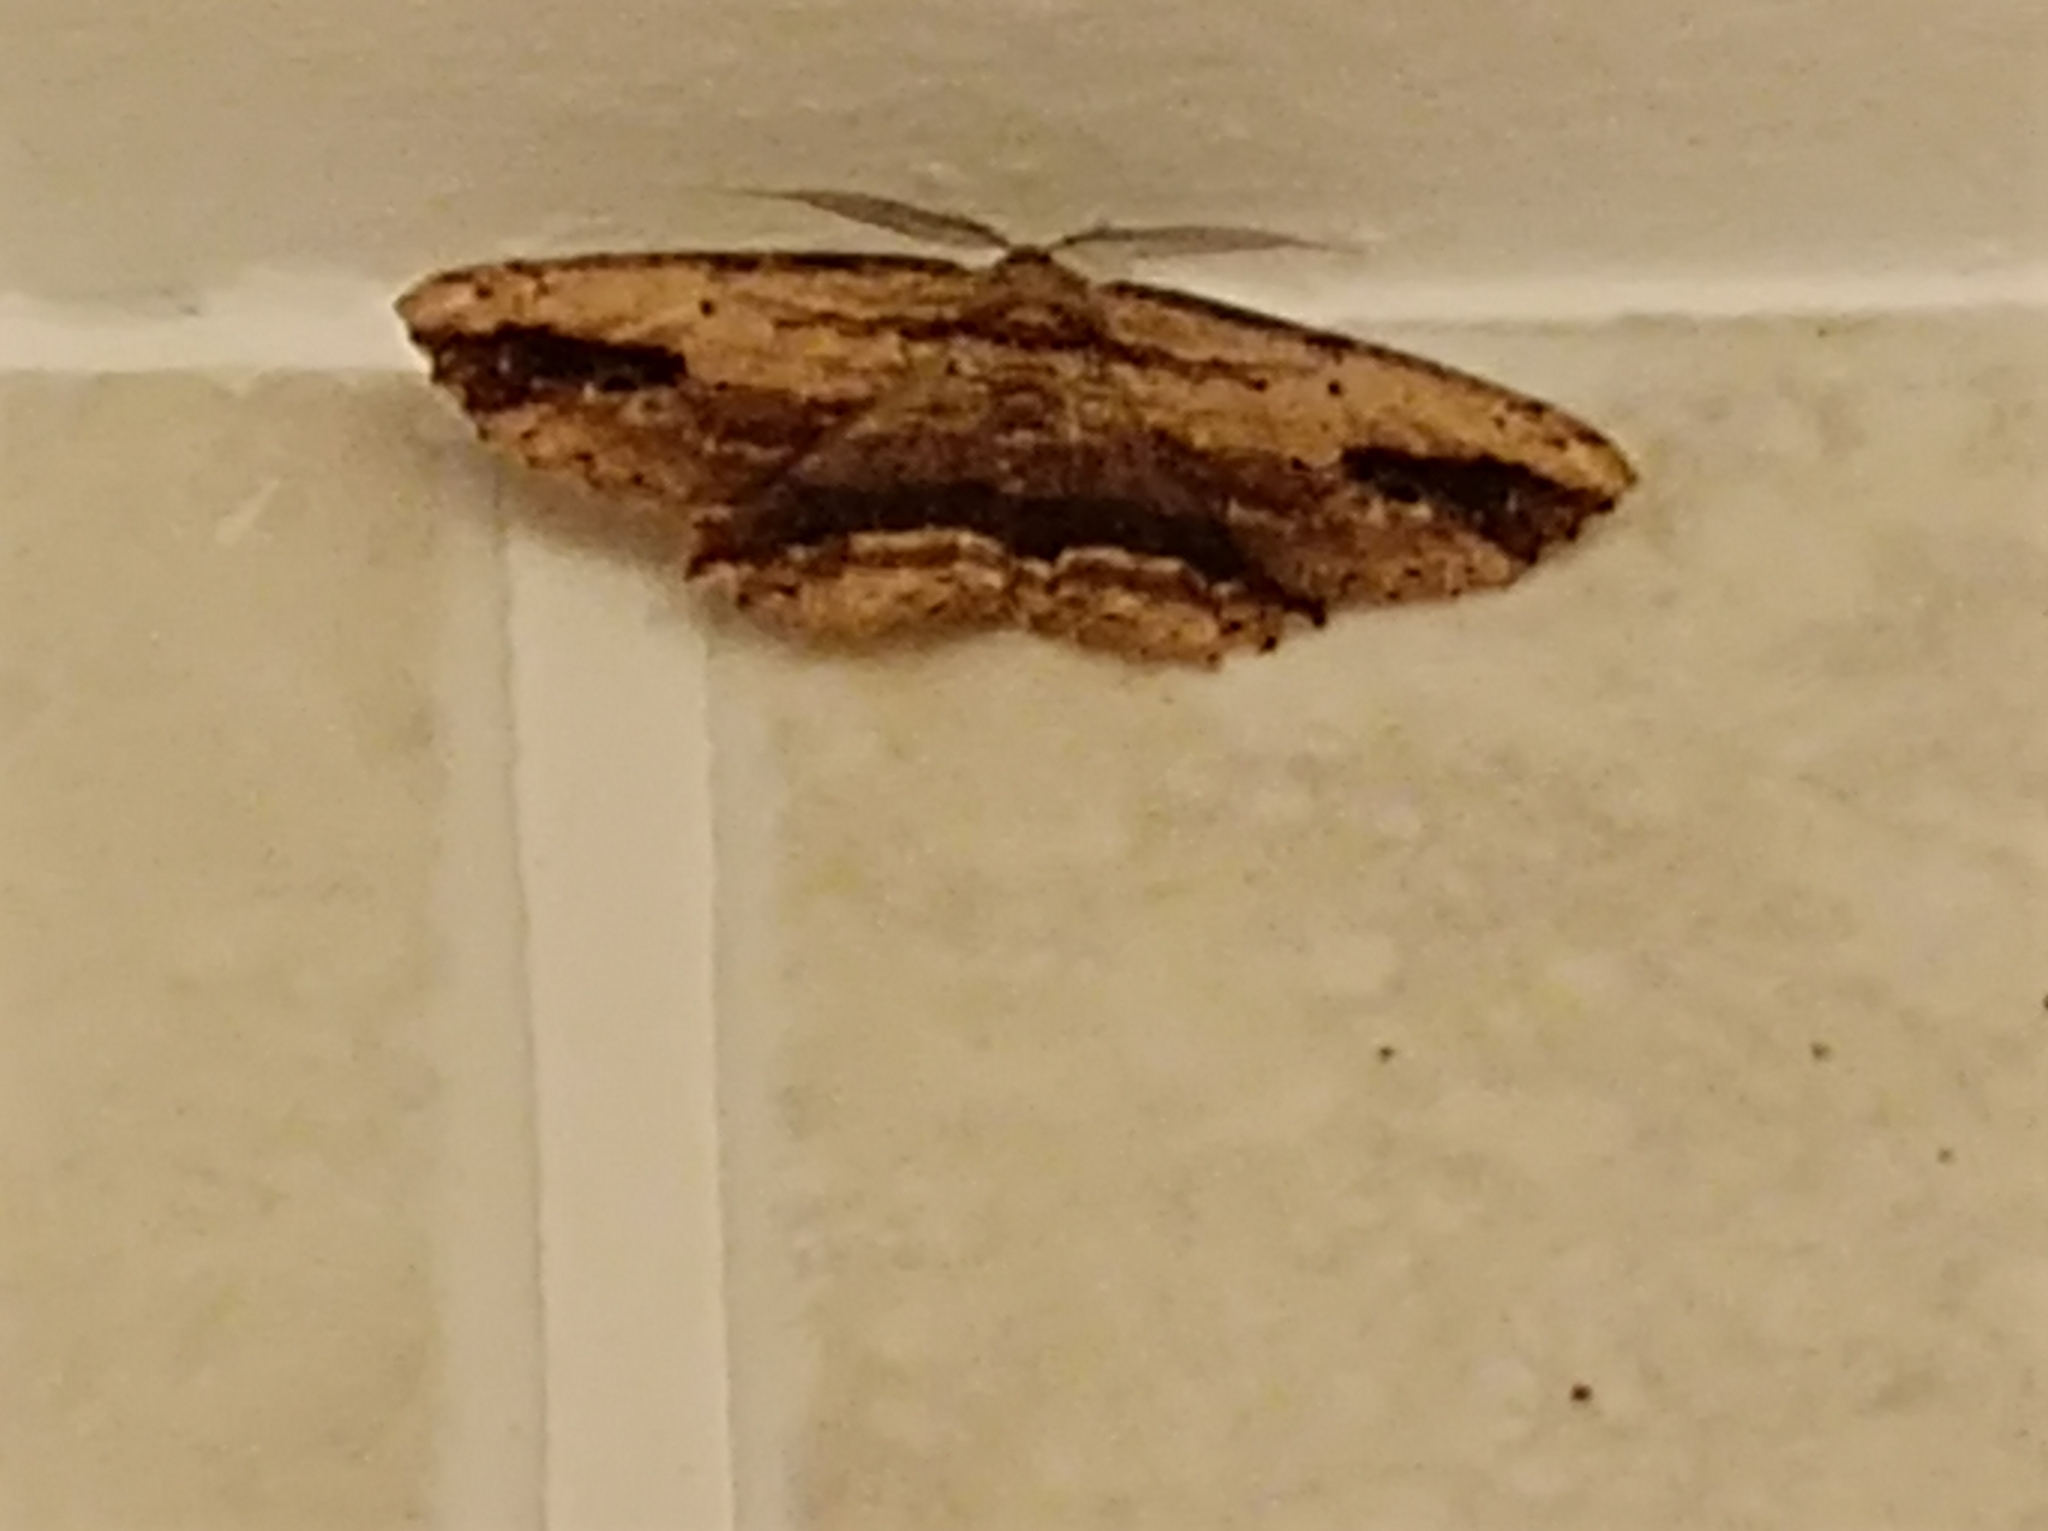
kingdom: Animalia
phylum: Arthropoda
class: Insecta
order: Lepidoptera
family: Geometridae
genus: Menophra
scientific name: Menophra abruptaria
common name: Waved umber
